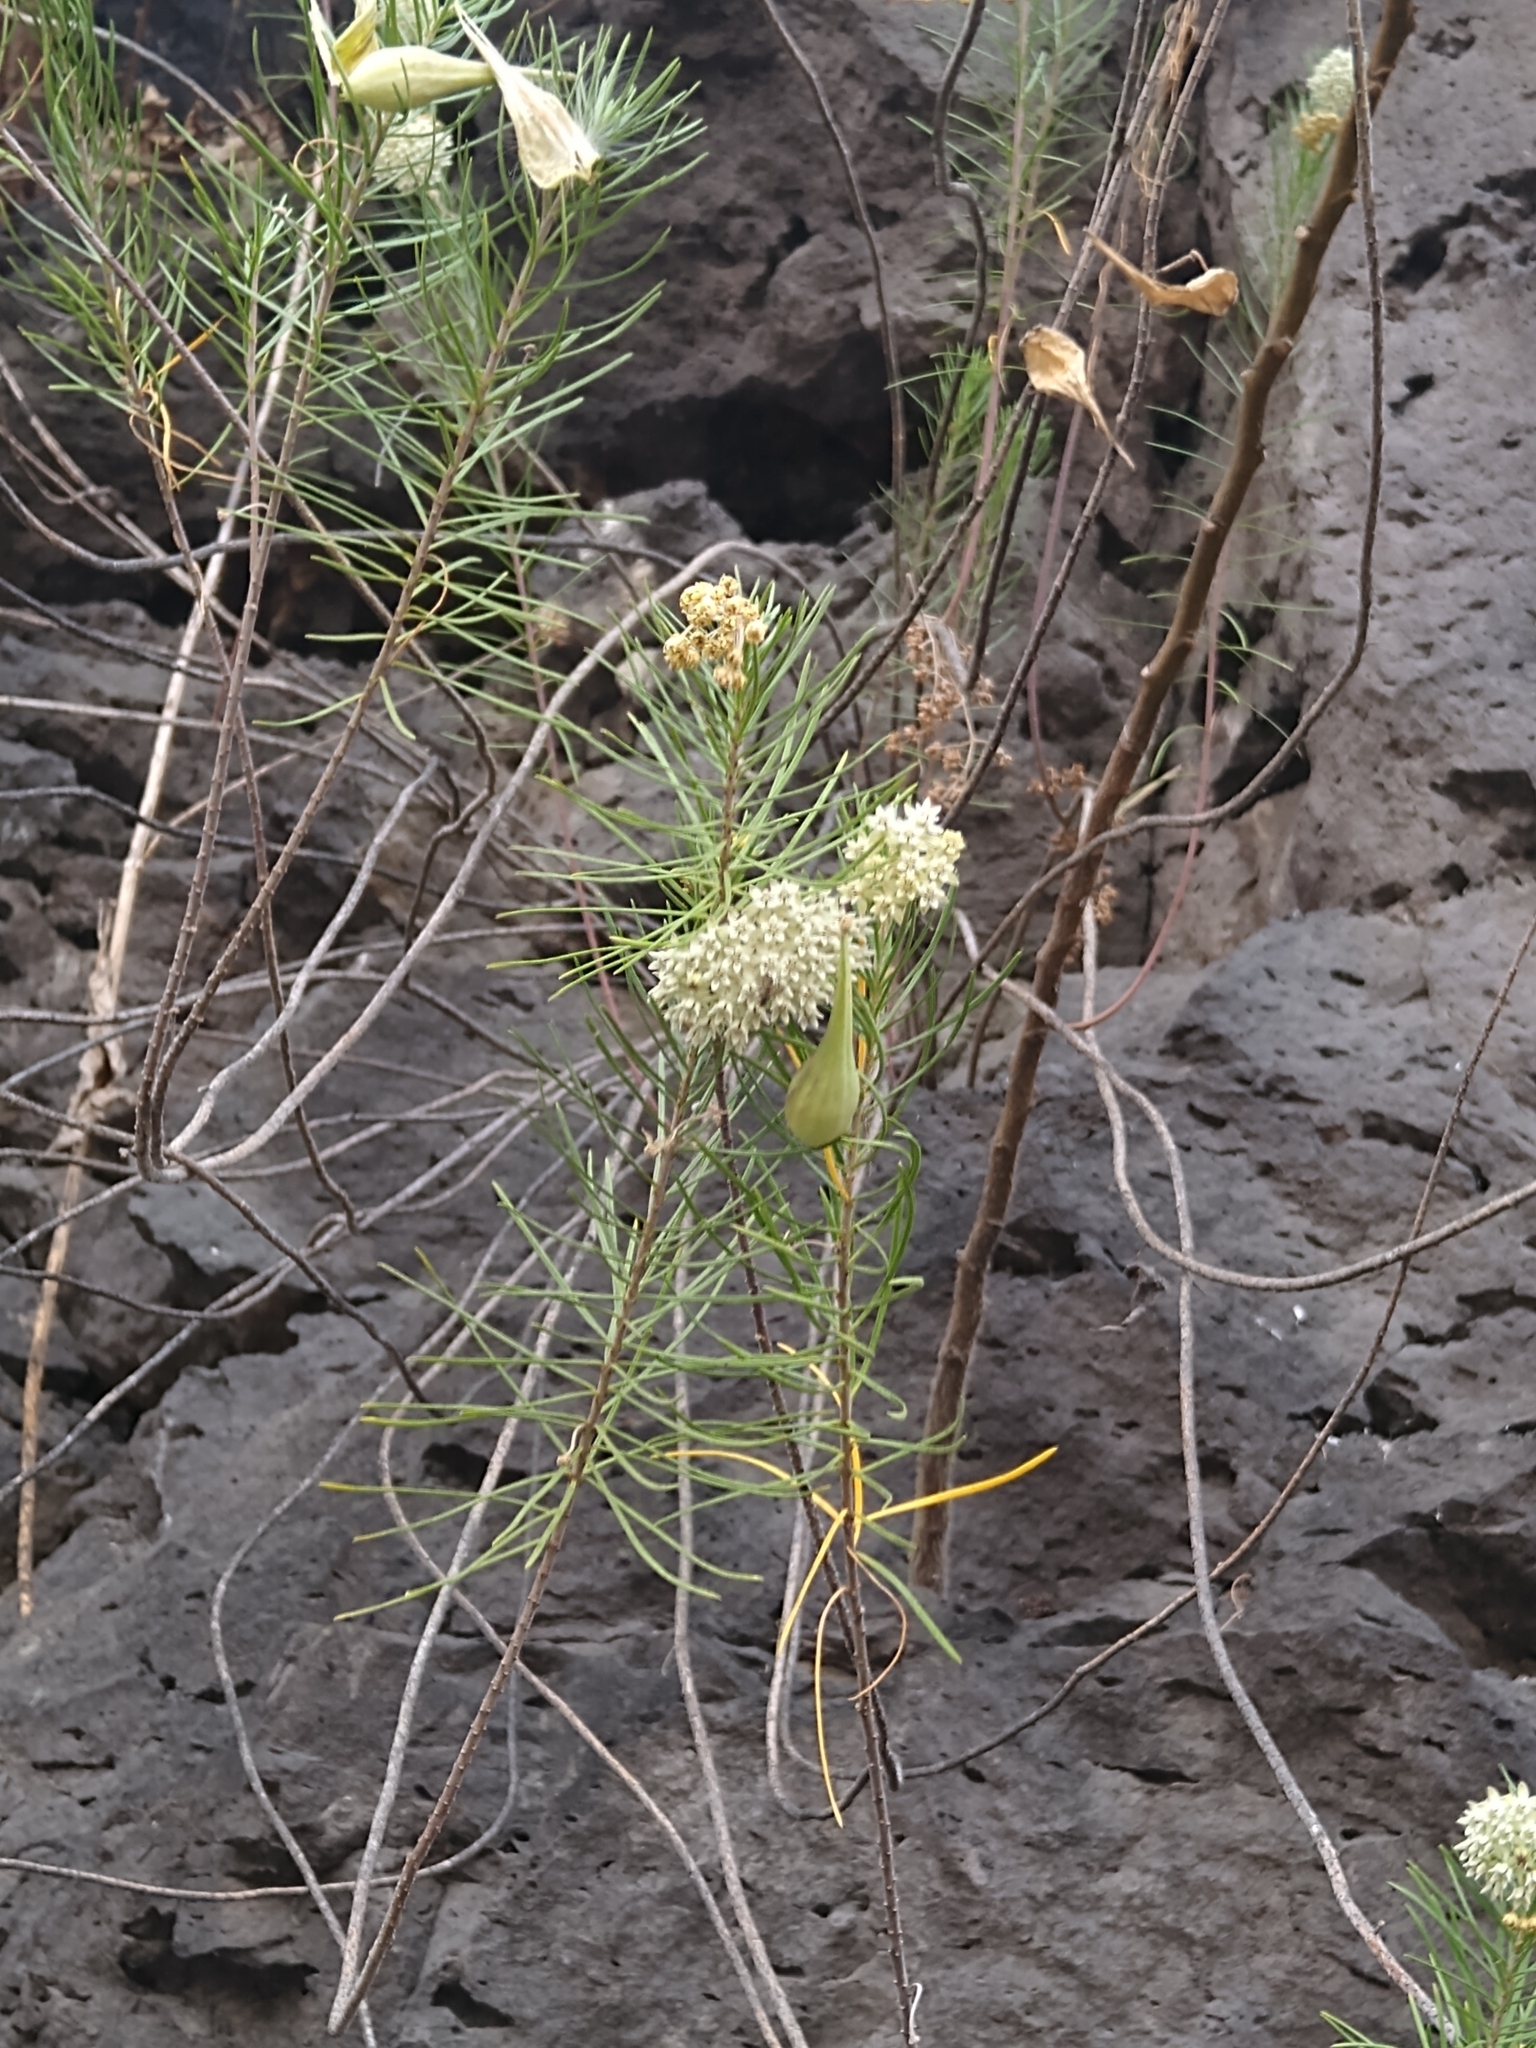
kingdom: Plantae
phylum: Tracheophyta
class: Magnoliopsida
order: Gentianales
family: Apocynaceae
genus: Asclepias
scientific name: Asclepias linaria
